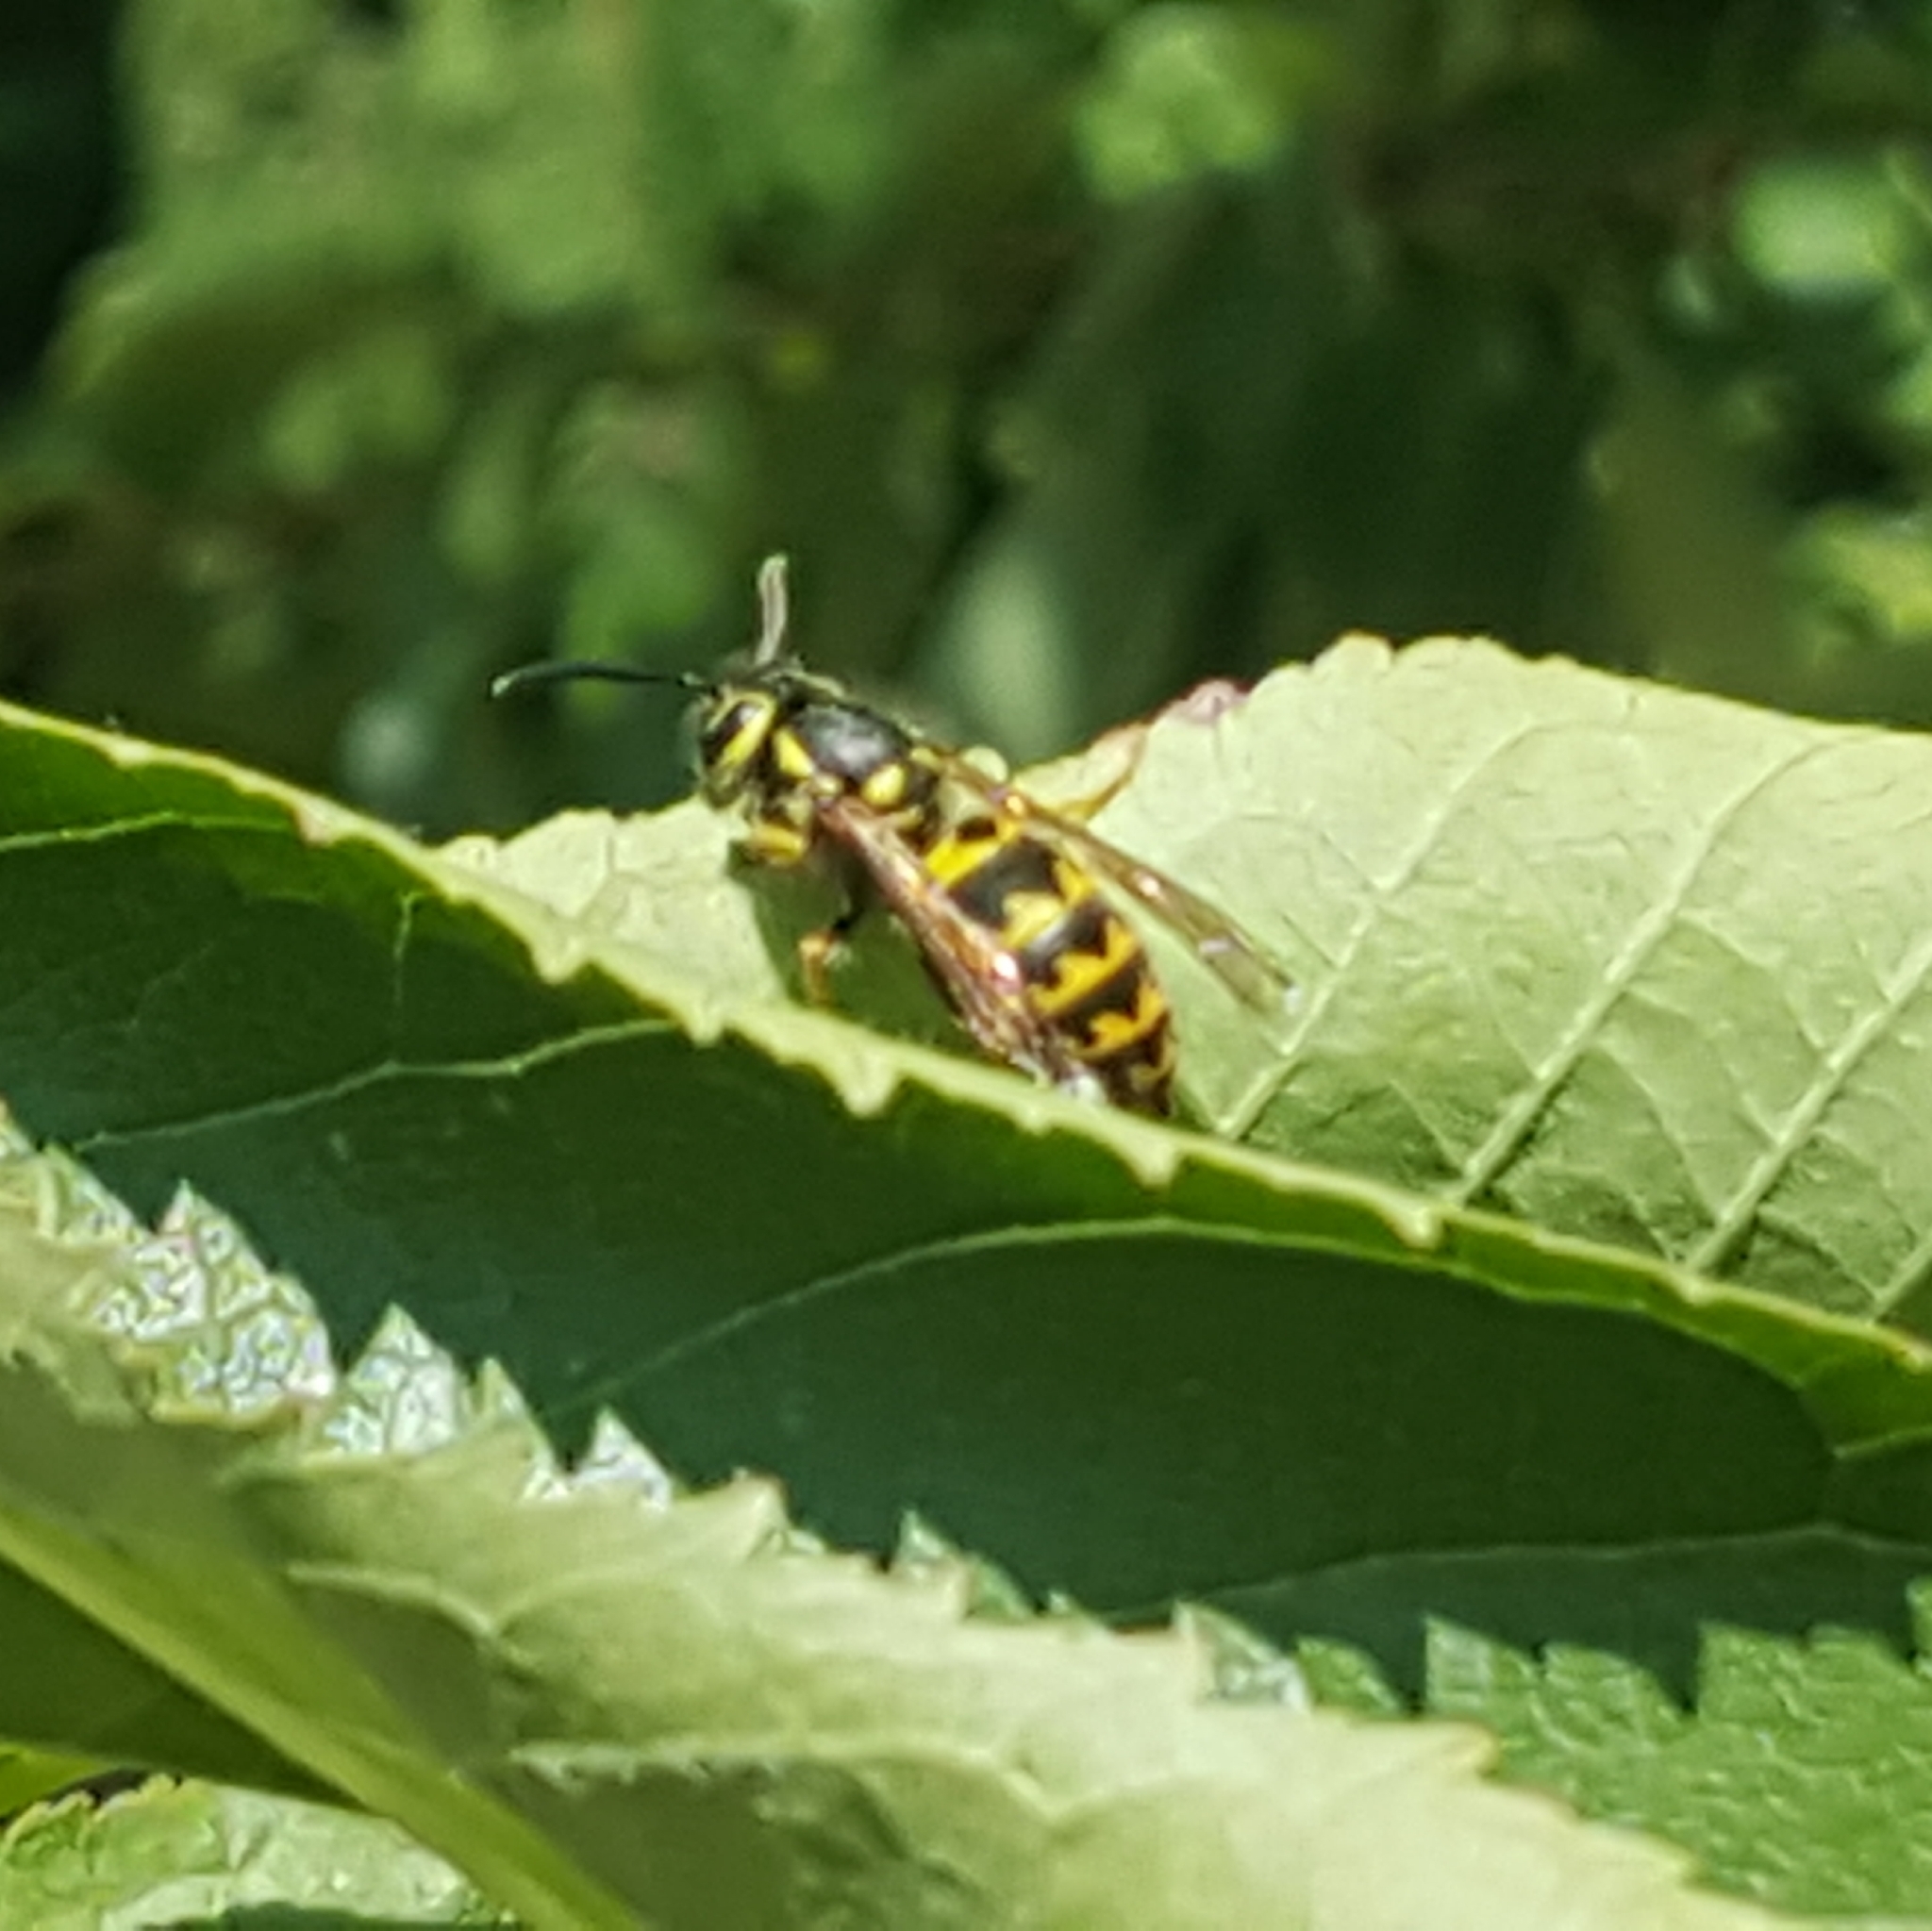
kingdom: Animalia
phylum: Arthropoda
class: Insecta
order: Hymenoptera
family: Vespidae
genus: Vespula
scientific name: Vespula pensylvanica
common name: Western yellowjacket
